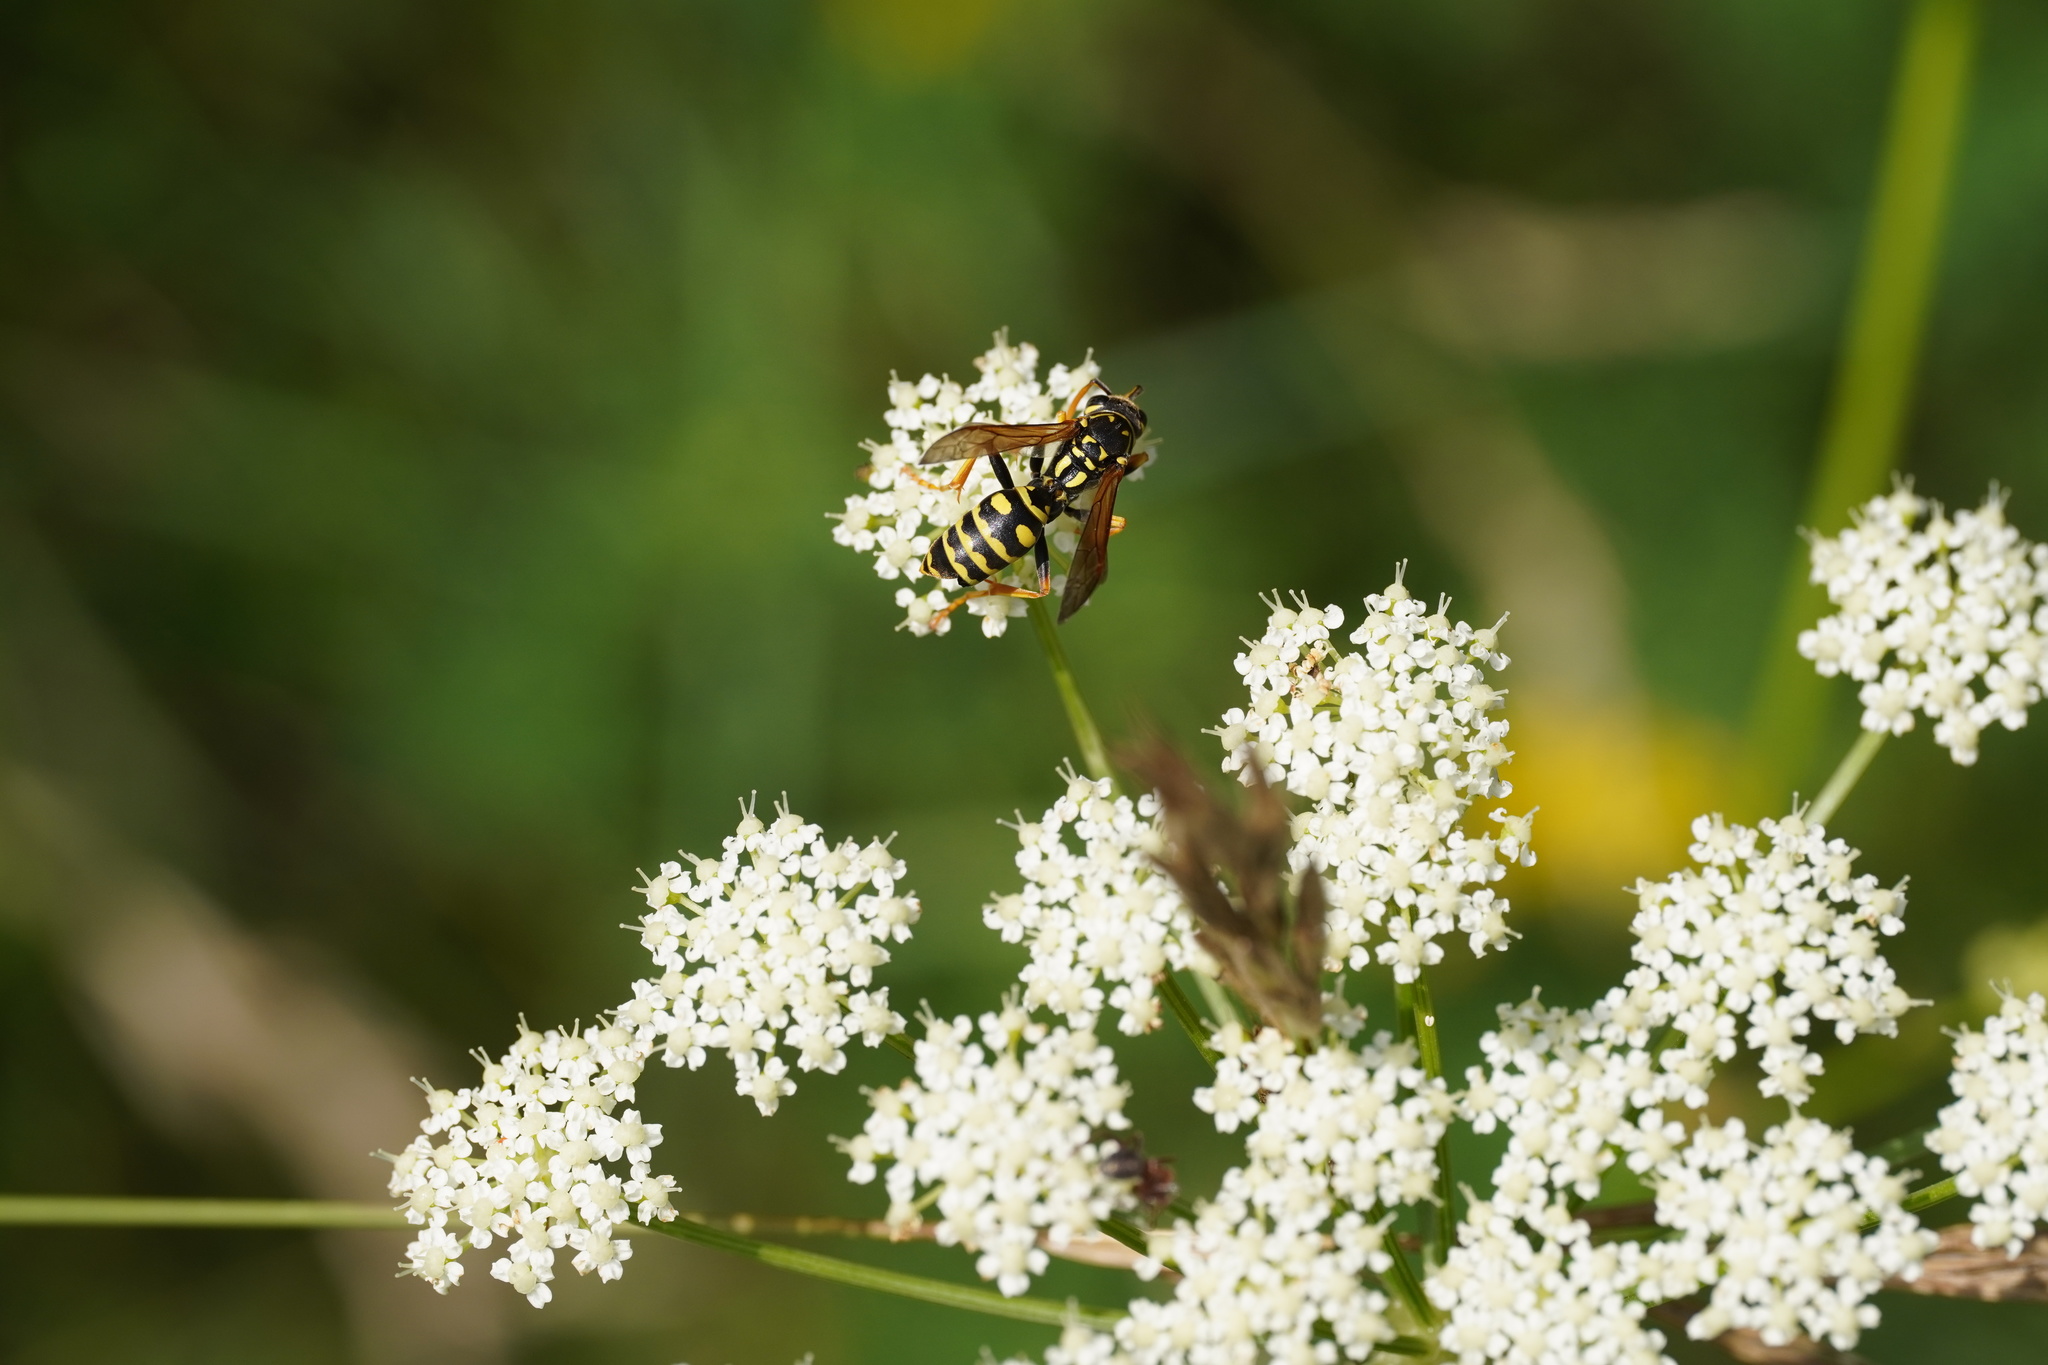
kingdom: Animalia
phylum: Arthropoda
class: Insecta
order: Hymenoptera
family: Eumenidae
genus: Polistes
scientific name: Polistes dominula
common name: Paper wasp
